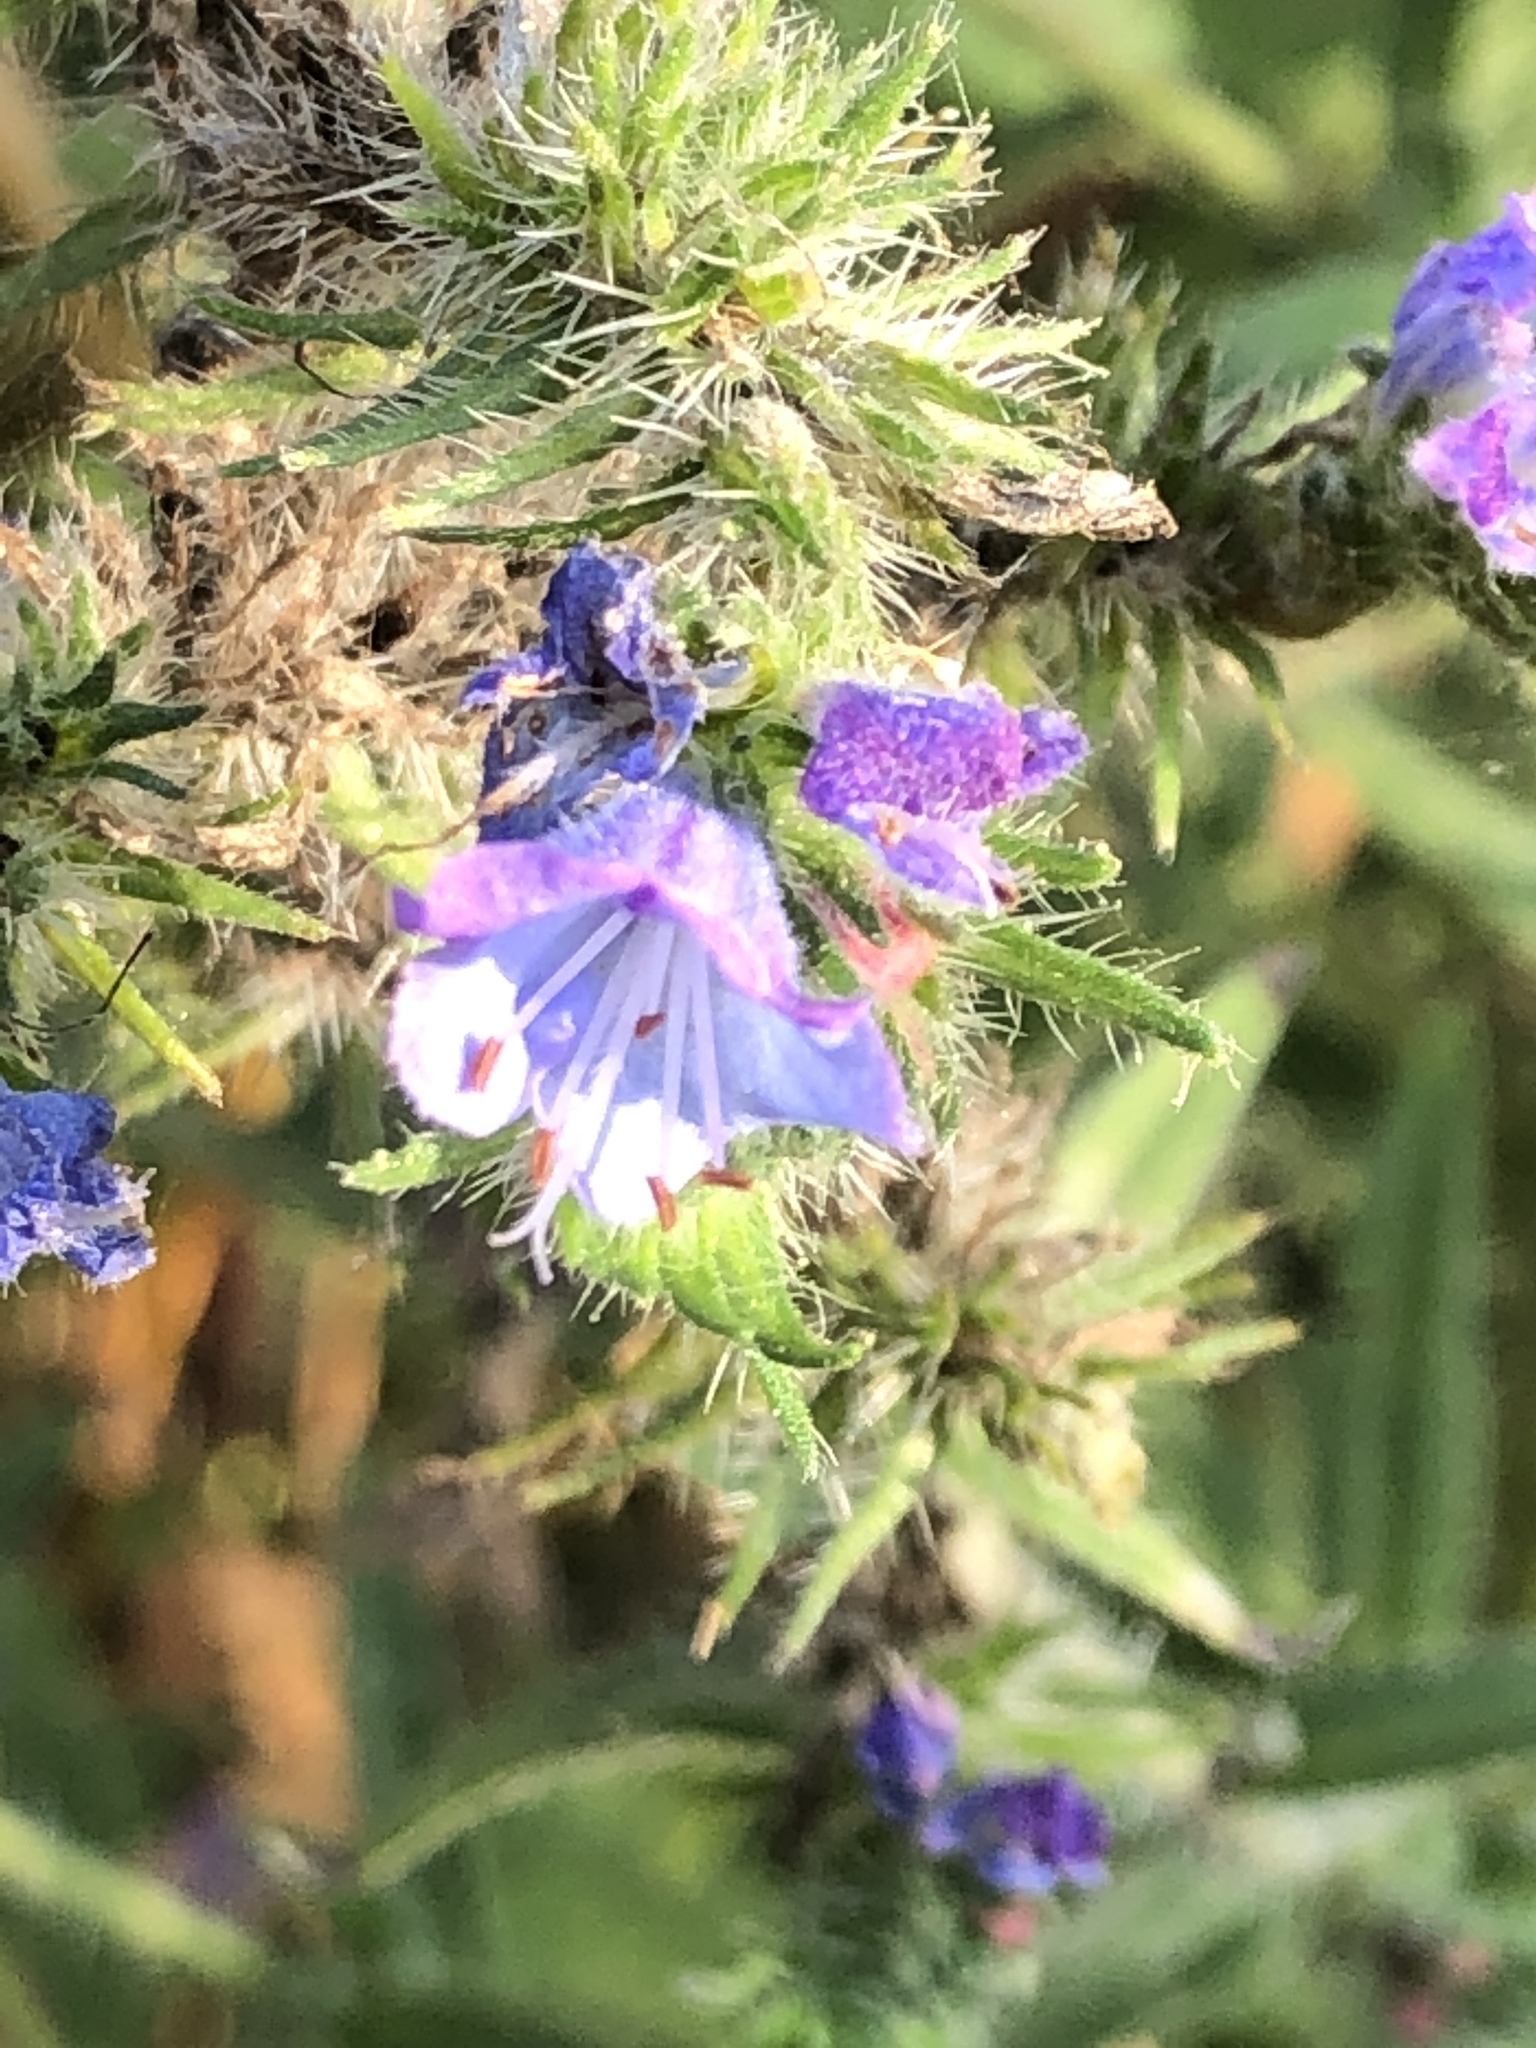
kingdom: Plantae
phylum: Tracheophyta
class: Magnoliopsida
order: Boraginales
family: Boraginaceae
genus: Echium
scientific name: Echium vulgare
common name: Common viper's bugloss
